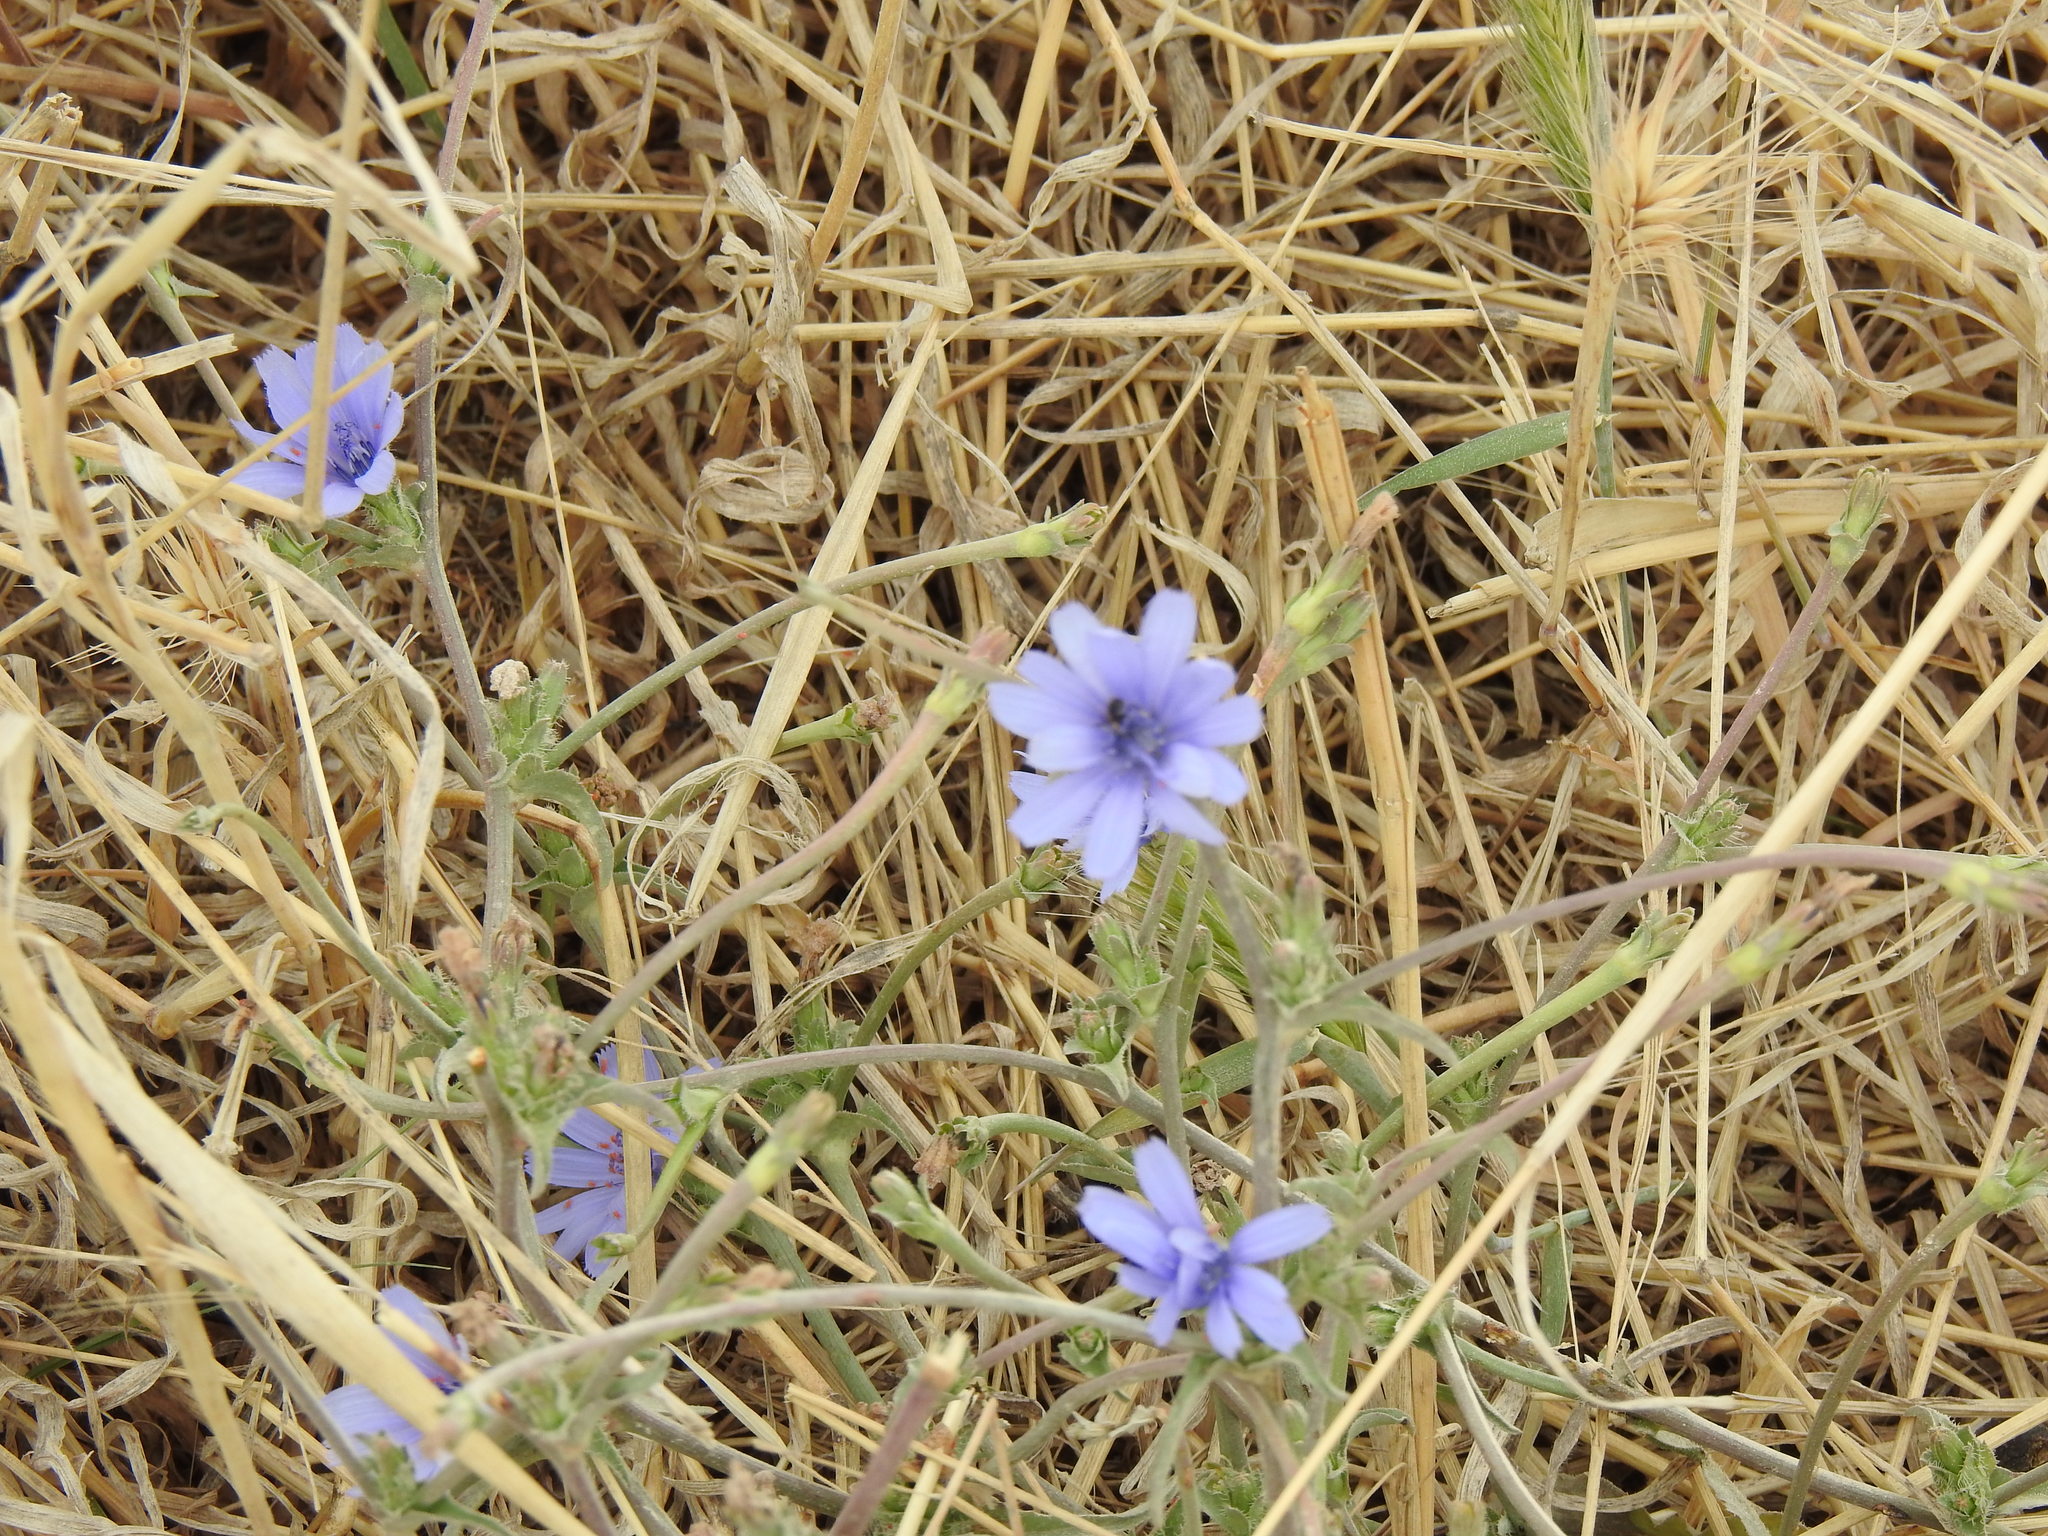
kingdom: Plantae
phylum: Tracheophyta
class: Magnoliopsida
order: Asterales
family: Asteraceae
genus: Cichorium
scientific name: Cichorium intybus
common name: Chicory
